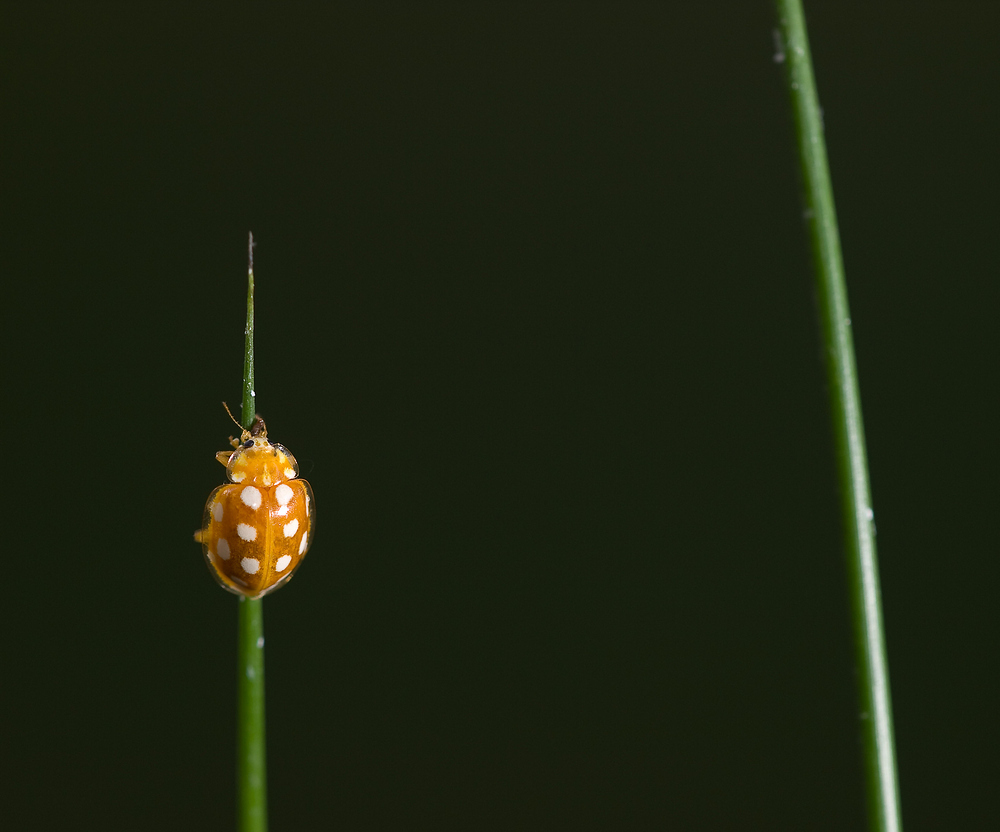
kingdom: Animalia
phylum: Arthropoda
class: Insecta
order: Coleoptera
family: Coccinellidae
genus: Halyzia
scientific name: Halyzia sedecimguttata
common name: Orange ladybird
